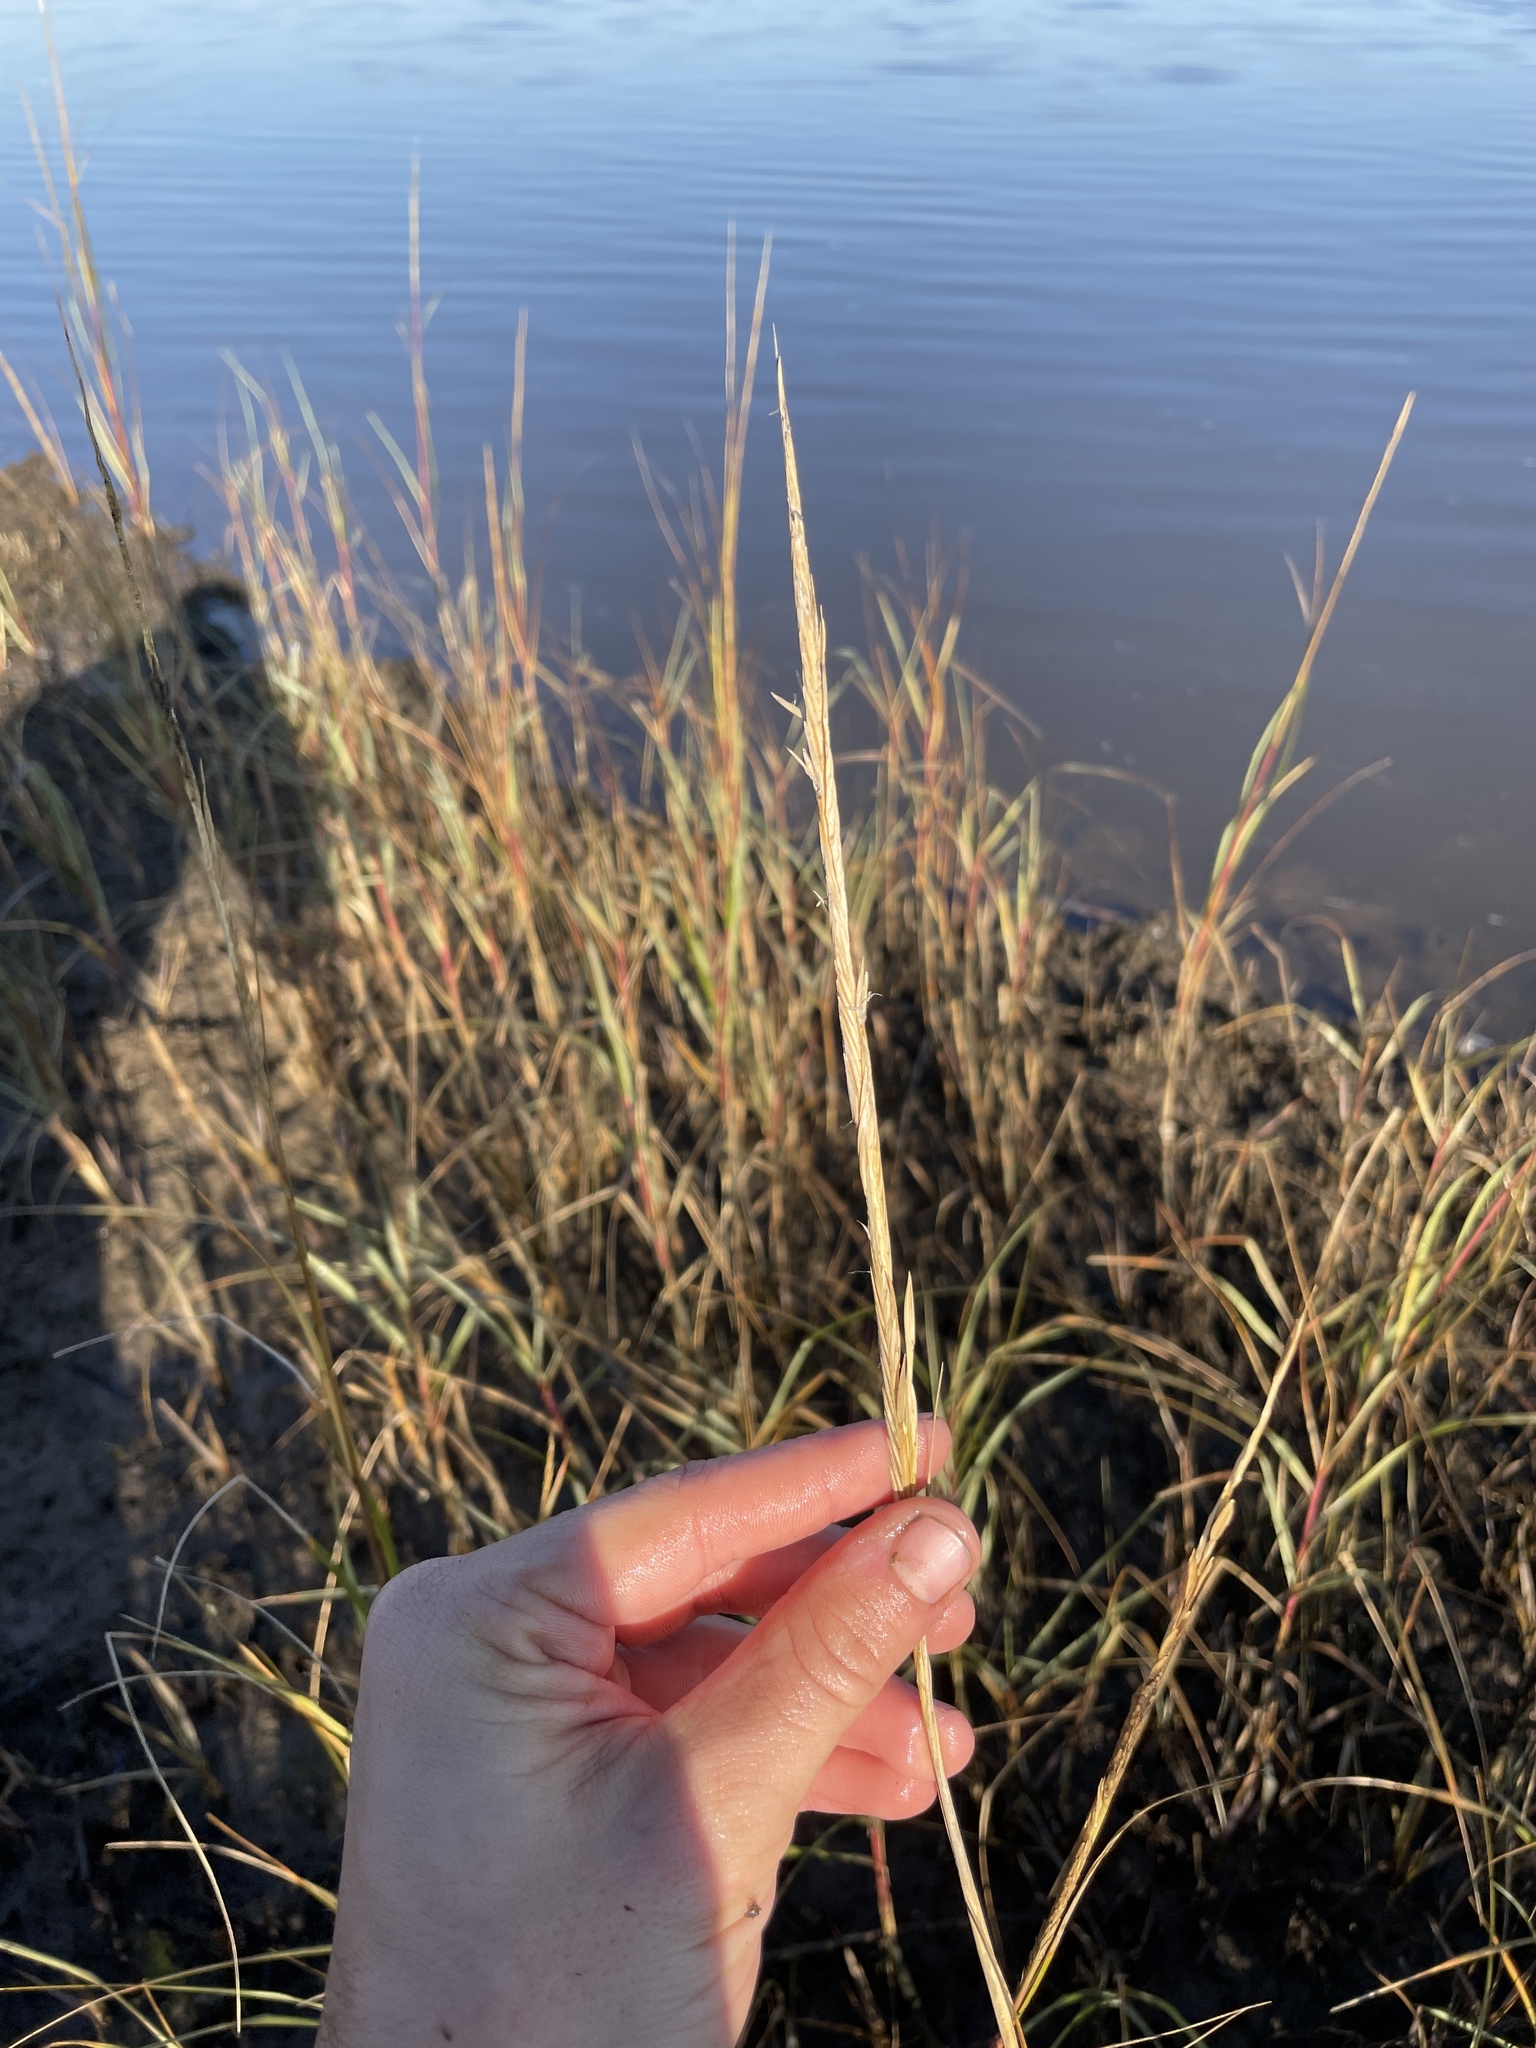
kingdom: Plantae
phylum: Tracheophyta
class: Liliopsida
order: Poales
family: Poaceae
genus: Sporobolus
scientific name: Sporobolus alterniflorus
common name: Atlantic cordgrass
